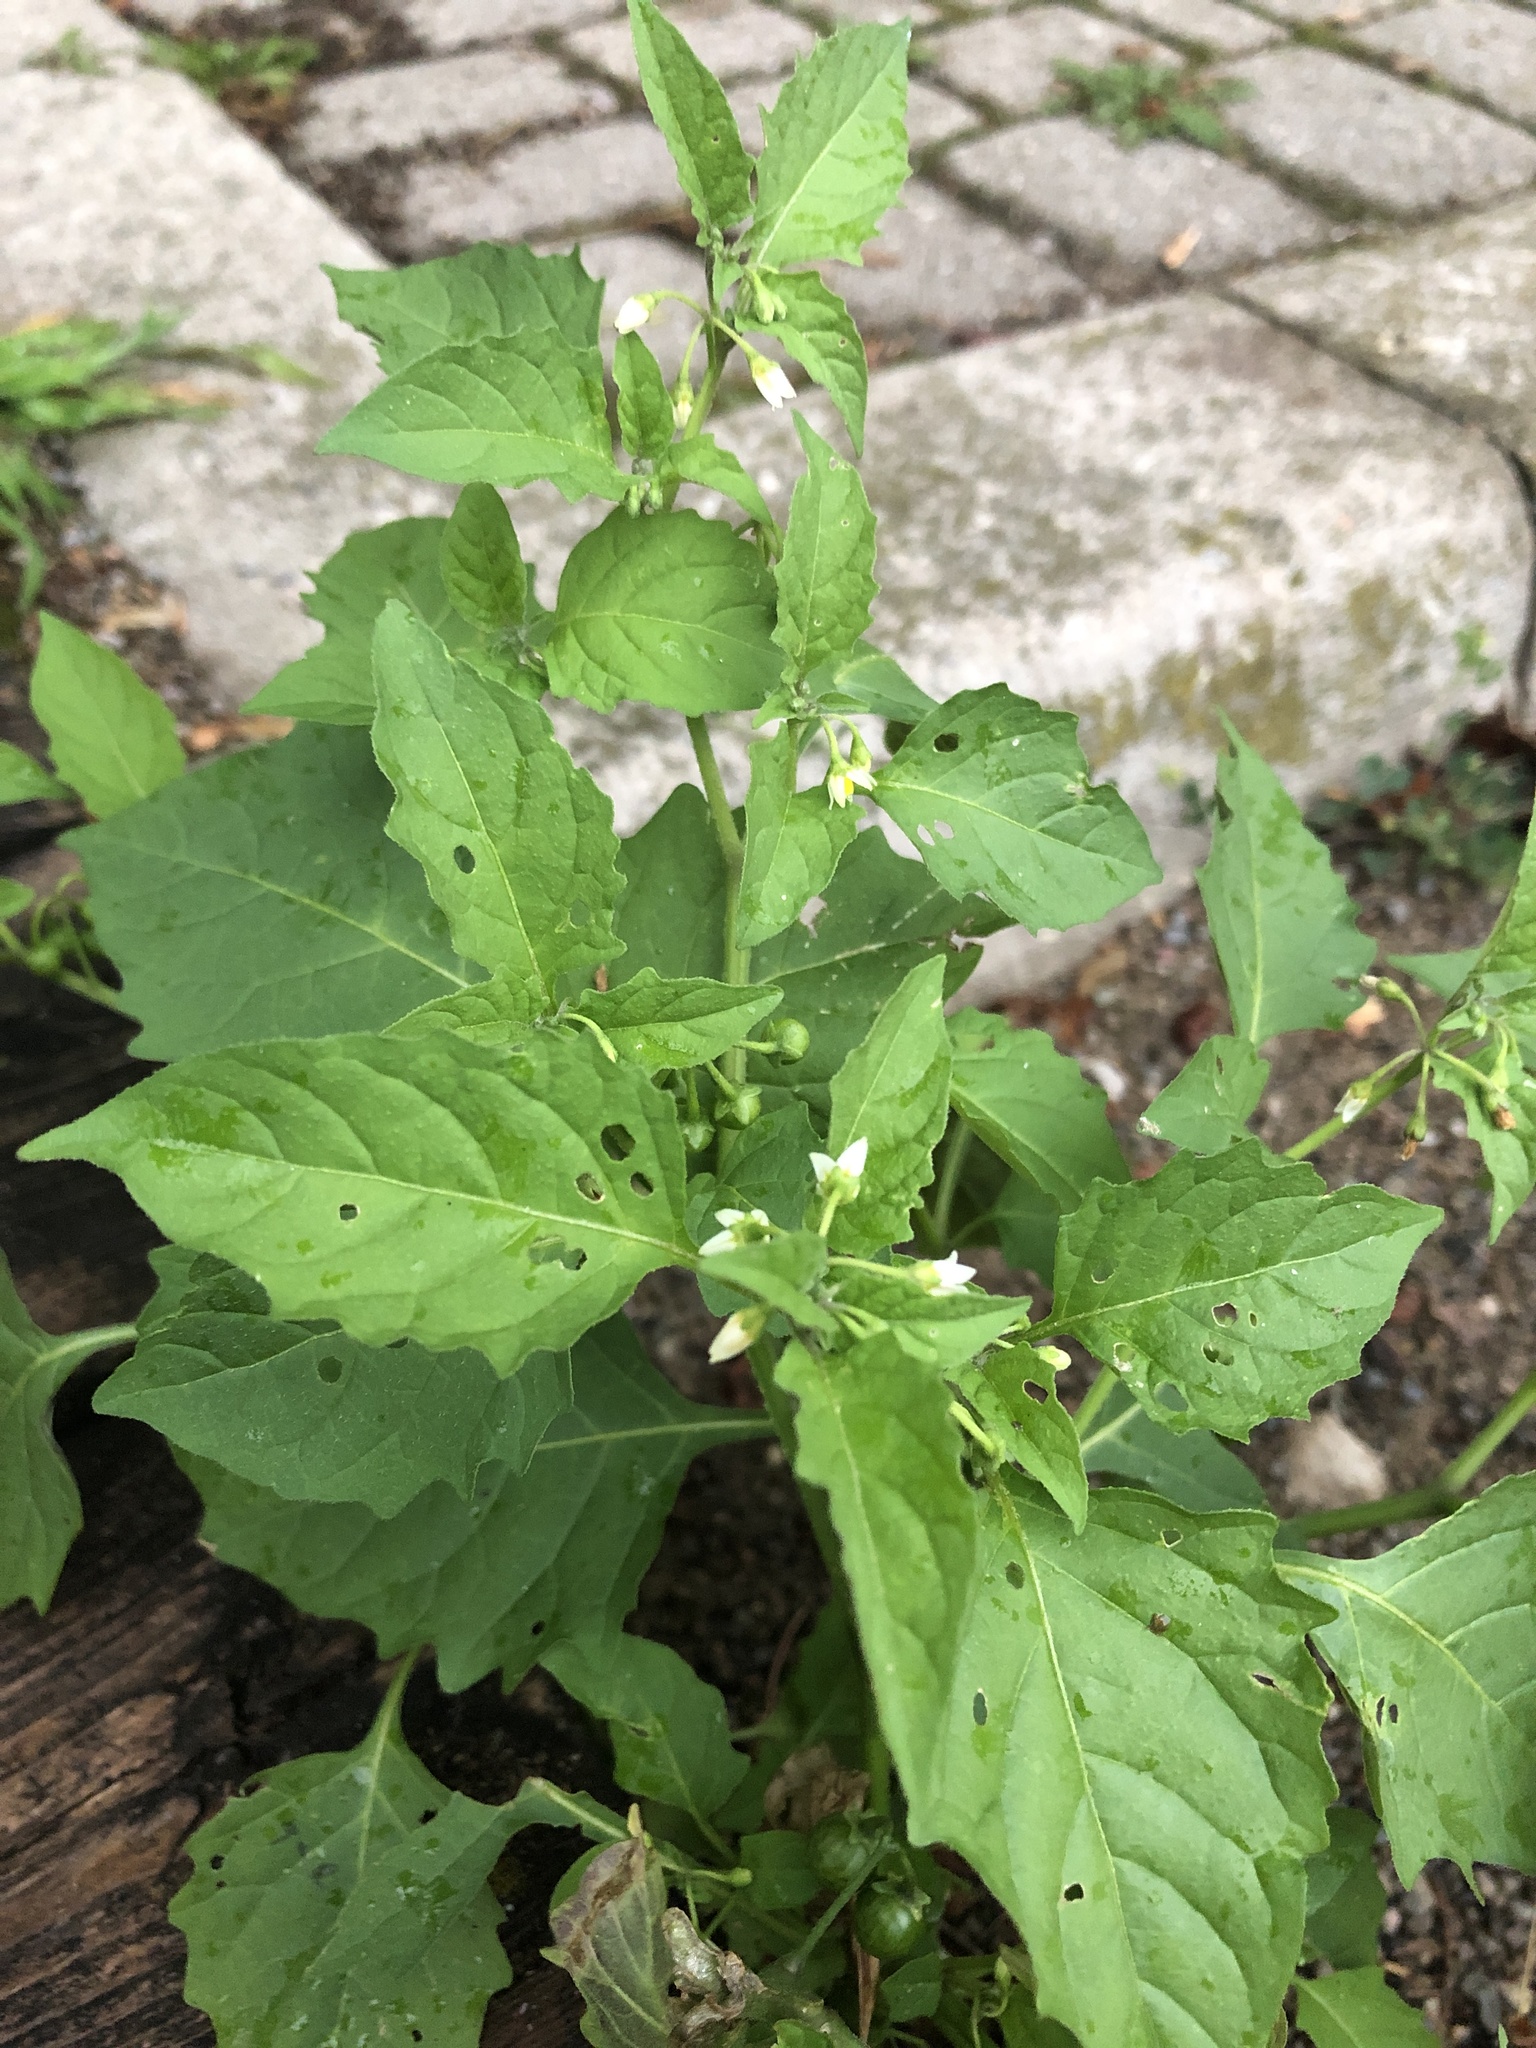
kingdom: Plantae
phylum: Tracheophyta
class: Magnoliopsida
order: Solanales
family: Solanaceae
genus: Solanum
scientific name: Solanum emulans
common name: Eastern black nightshade
